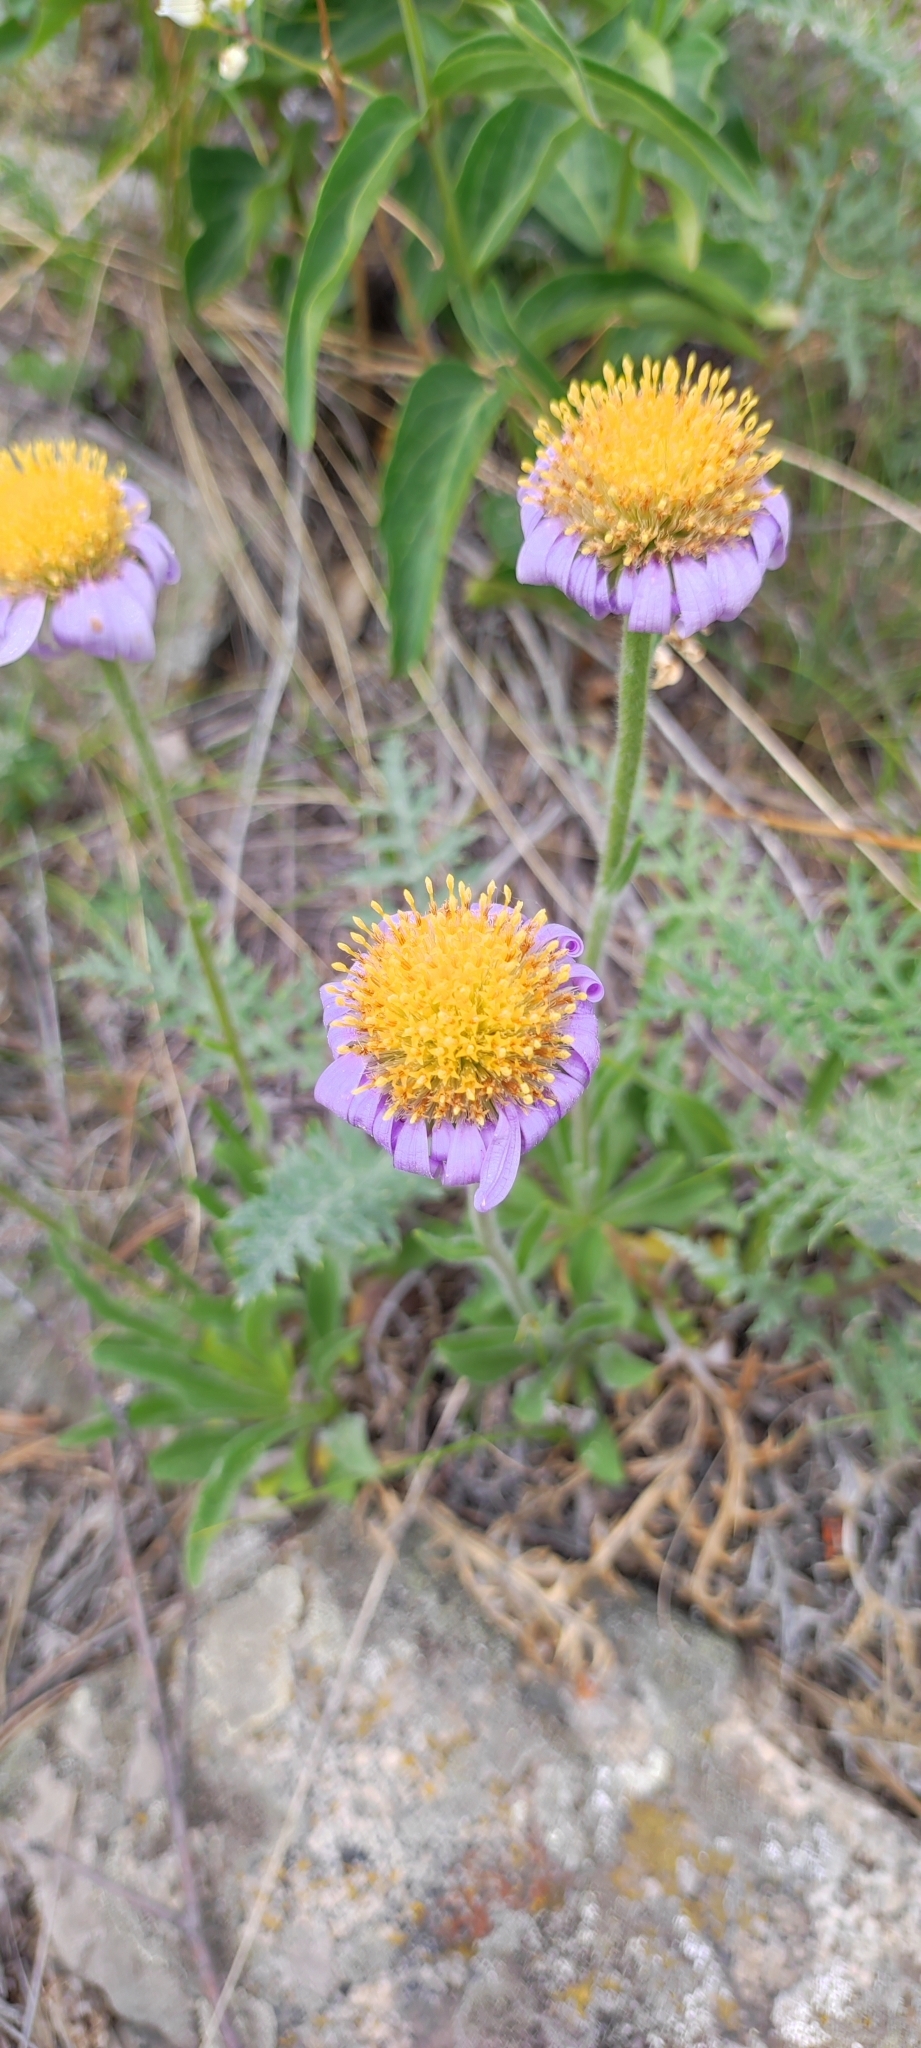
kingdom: Plantae
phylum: Tracheophyta
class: Magnoliopsida
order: Asterales
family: Asteraceae
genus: Aster
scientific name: Aster alpinus
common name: Alpine aster
